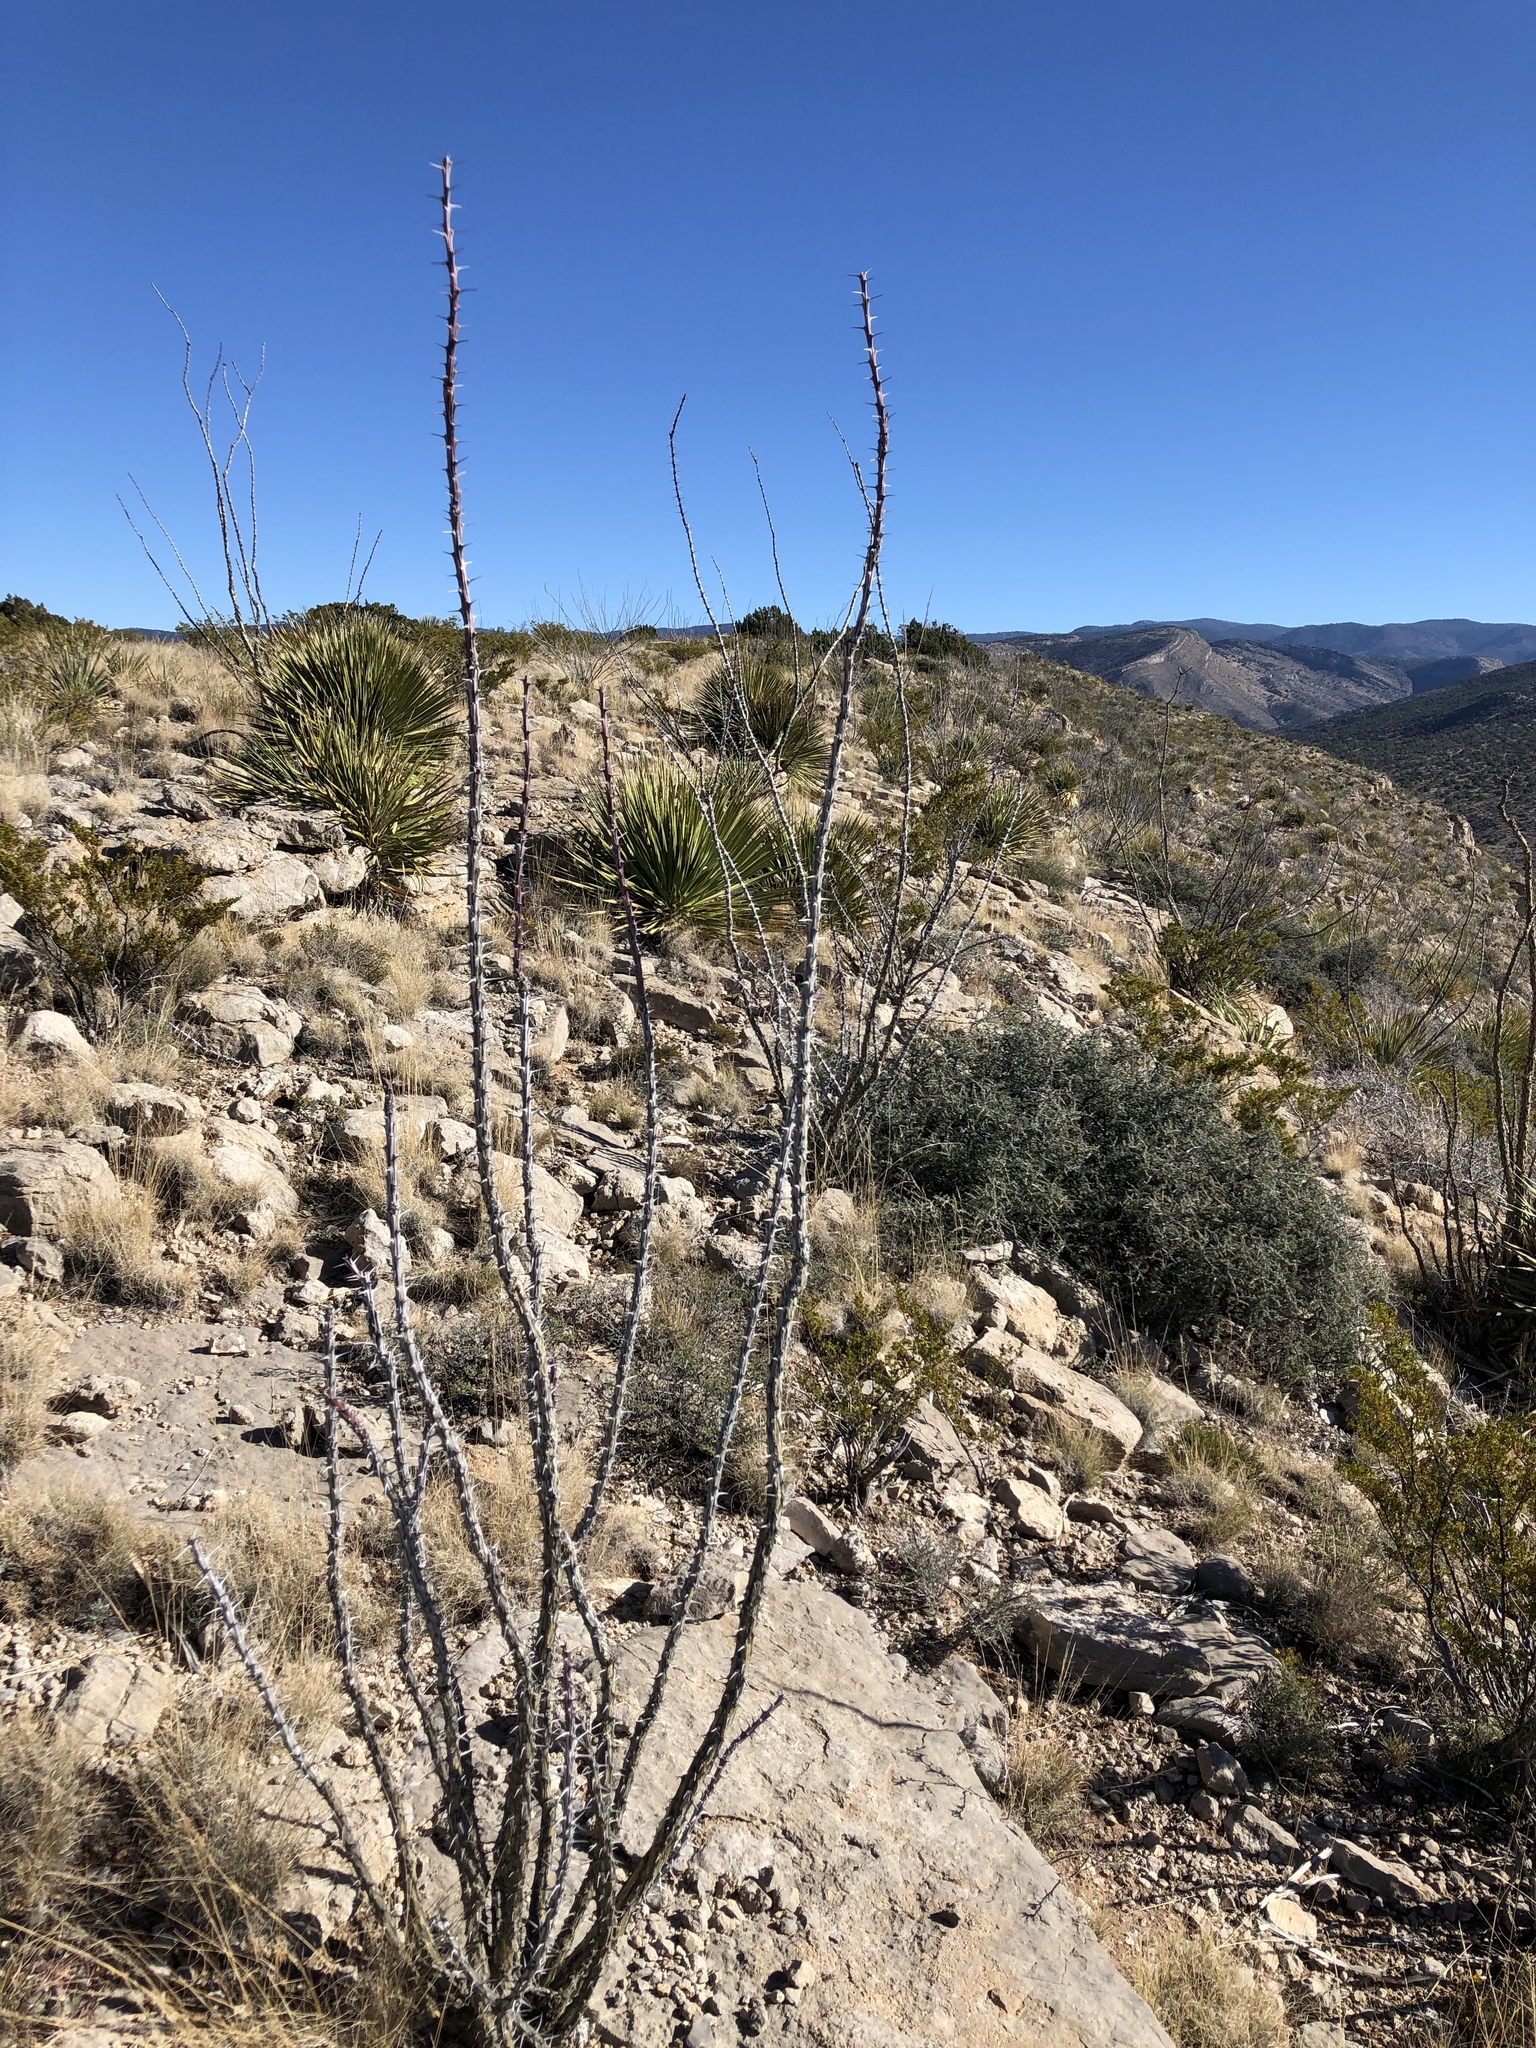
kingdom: Plantae
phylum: Tracheophyta
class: Magnoliopsida
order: Ericales
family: Fouquieriaceae
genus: Fouquieria
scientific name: Fouquieria splendens
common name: Vine-cactus
